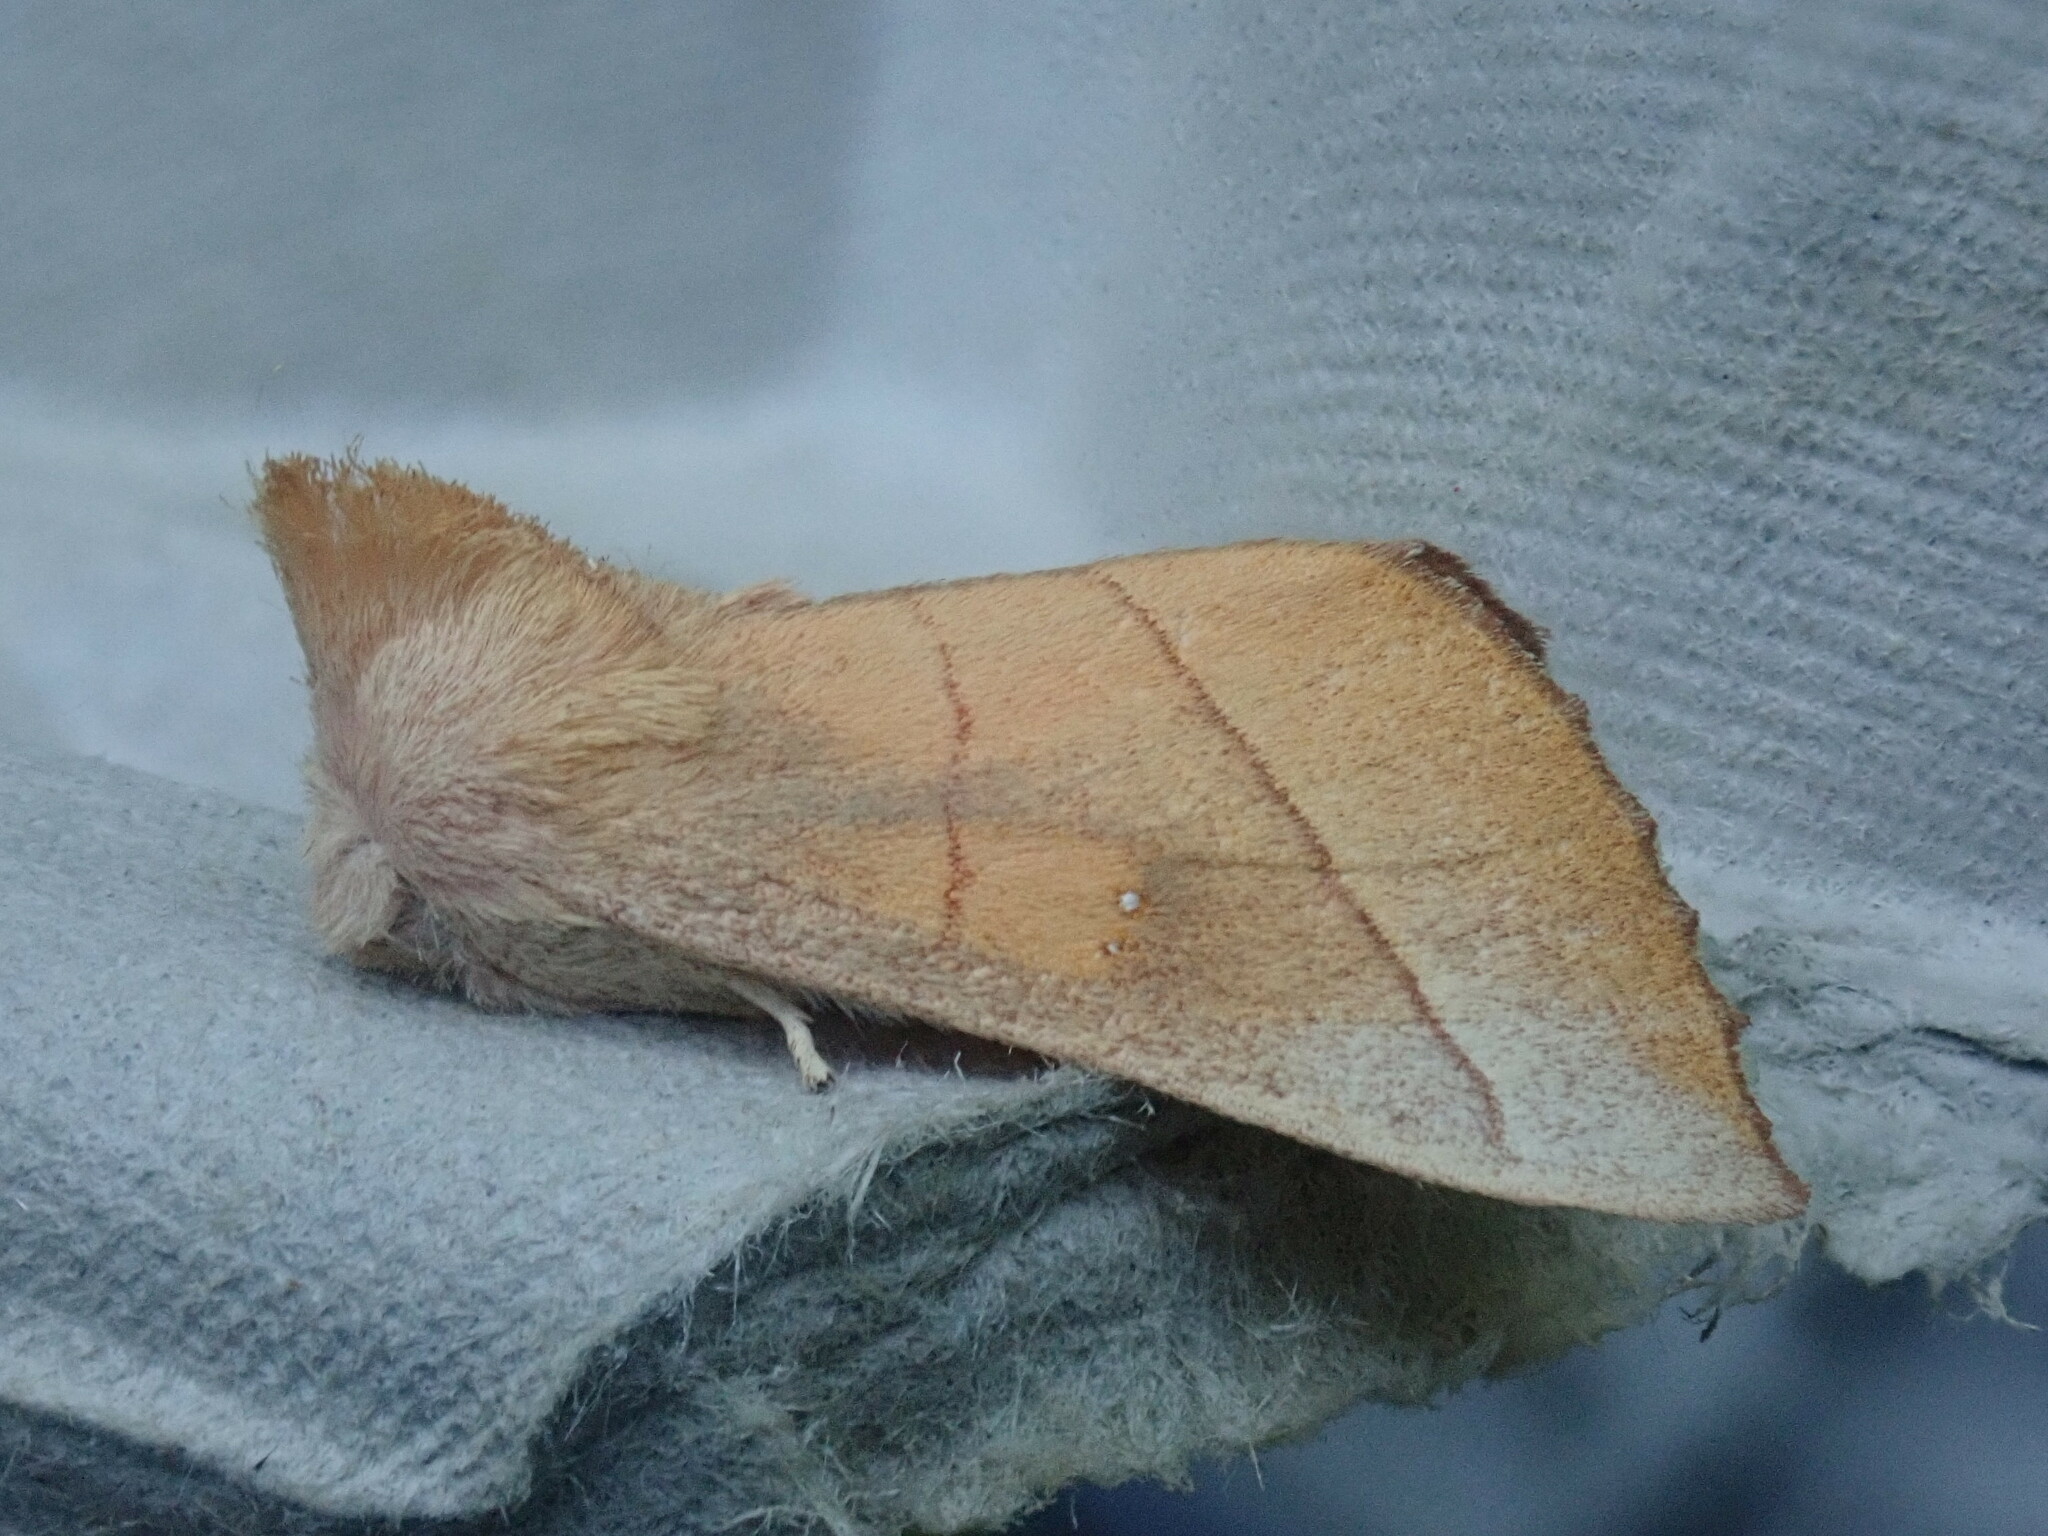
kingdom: Animalia
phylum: Arthropoda
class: Insecta
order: Lepidoptera
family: Notodontidae
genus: Nadata
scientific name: Nadata gibbosa
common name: White-dotted prominent
